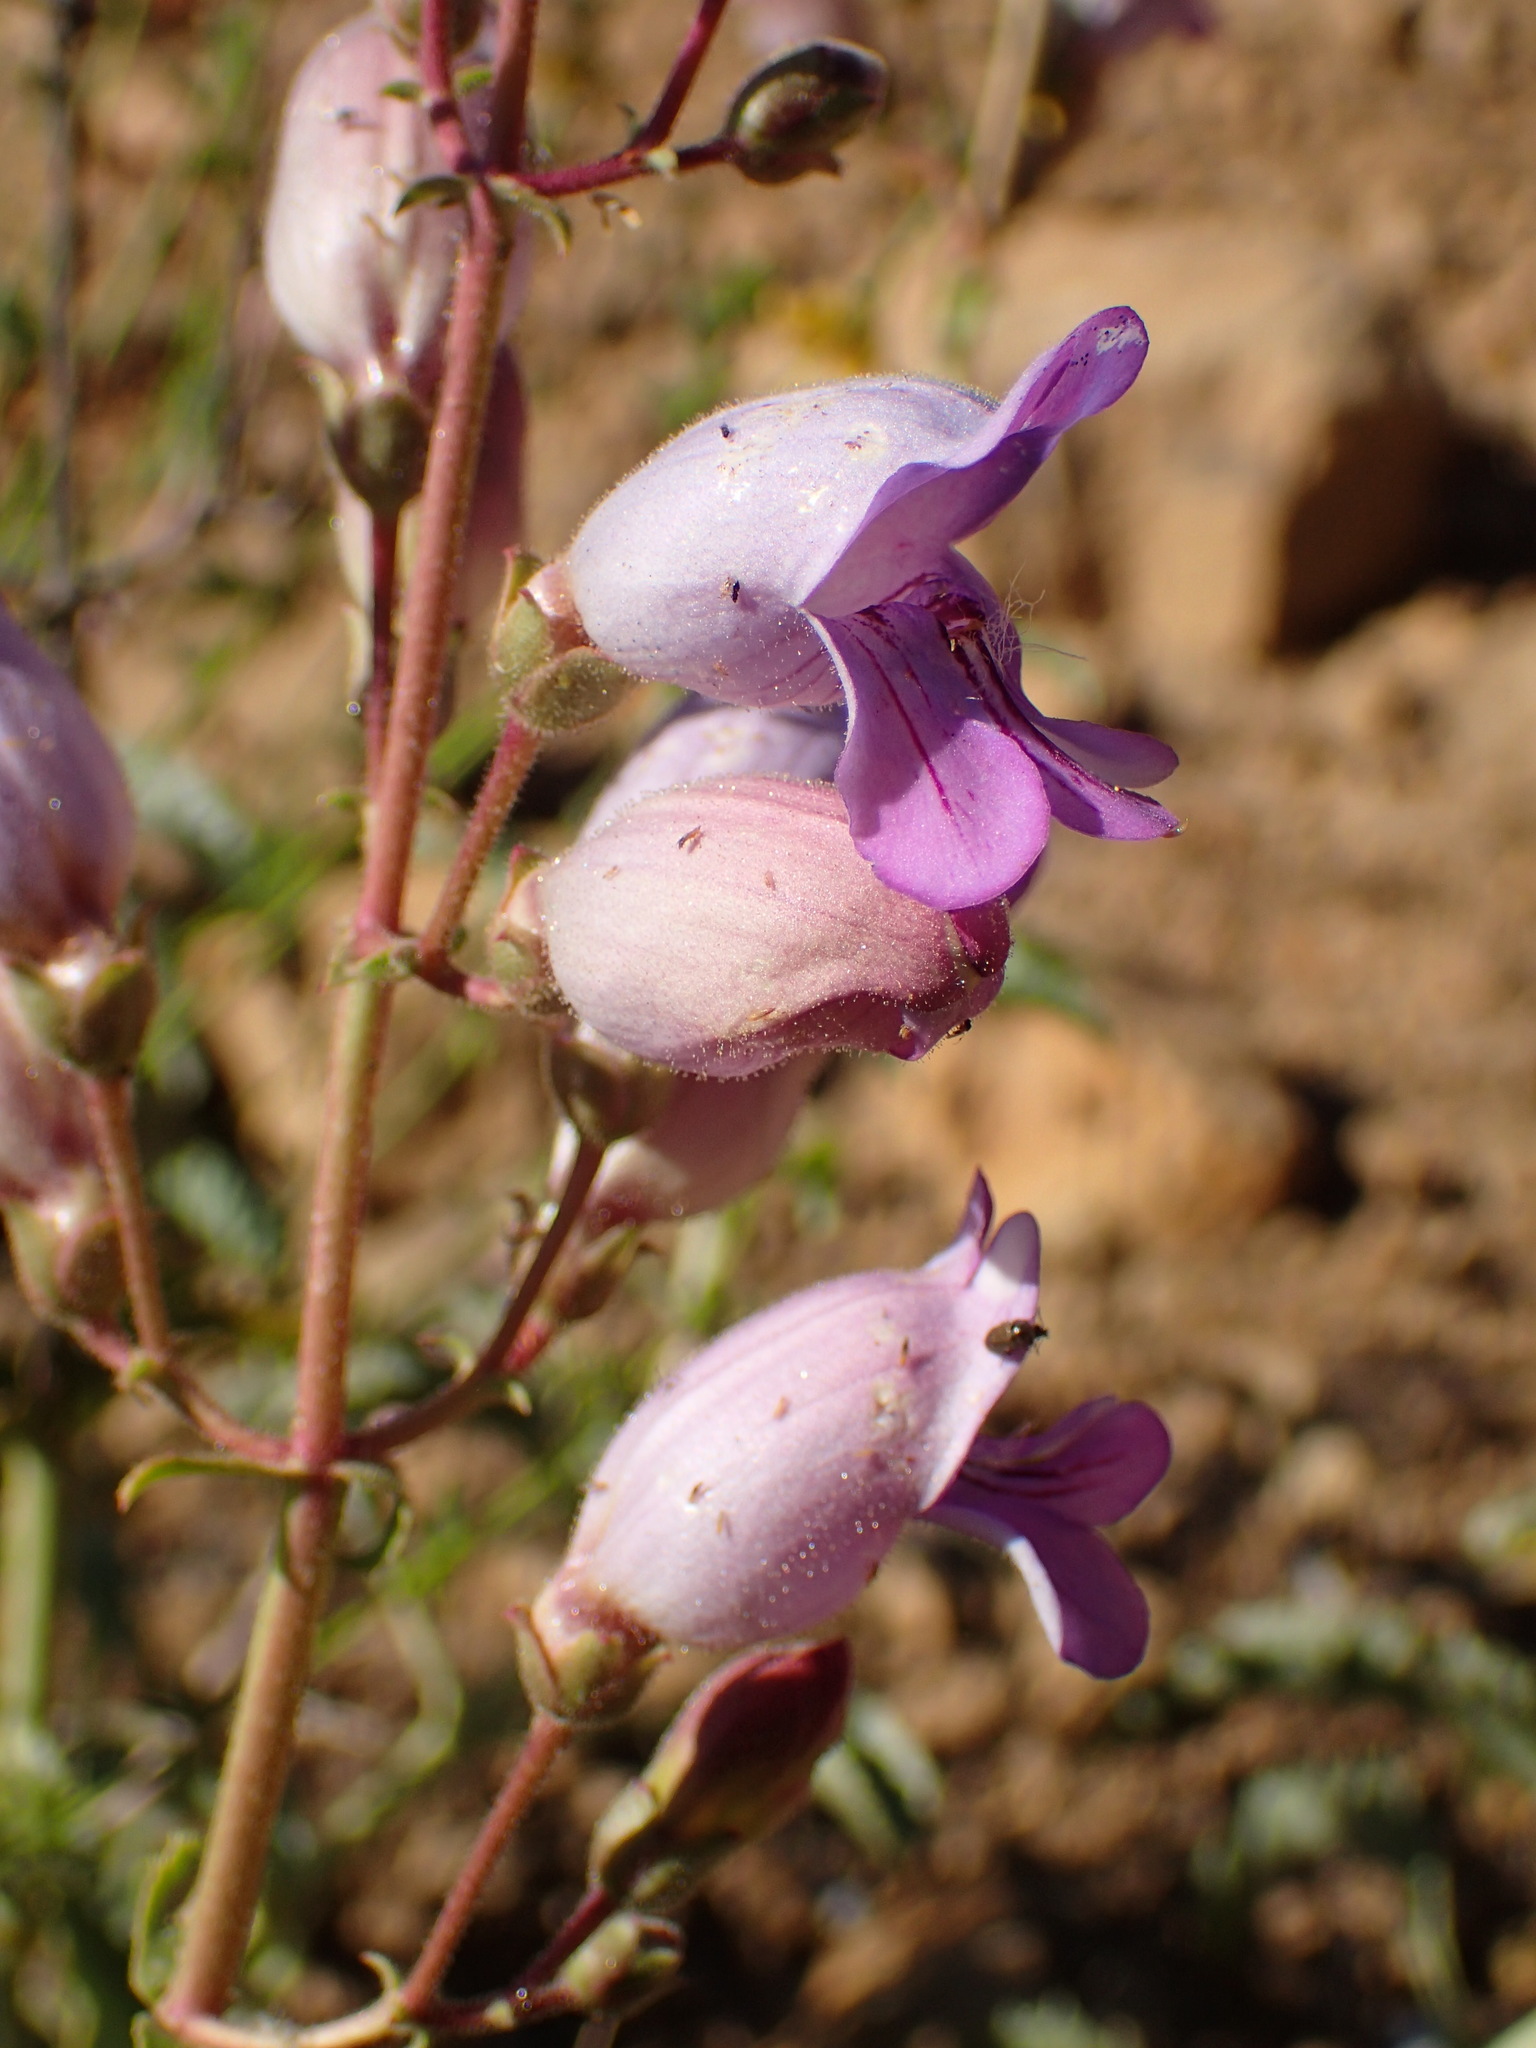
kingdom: Plantae
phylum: Tracheophyta
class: Magnoliopsida
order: Lamiales
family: Plantaginaceae
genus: Penstemon
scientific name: Penstemon grinnellii
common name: Grinnell's beardtongue
